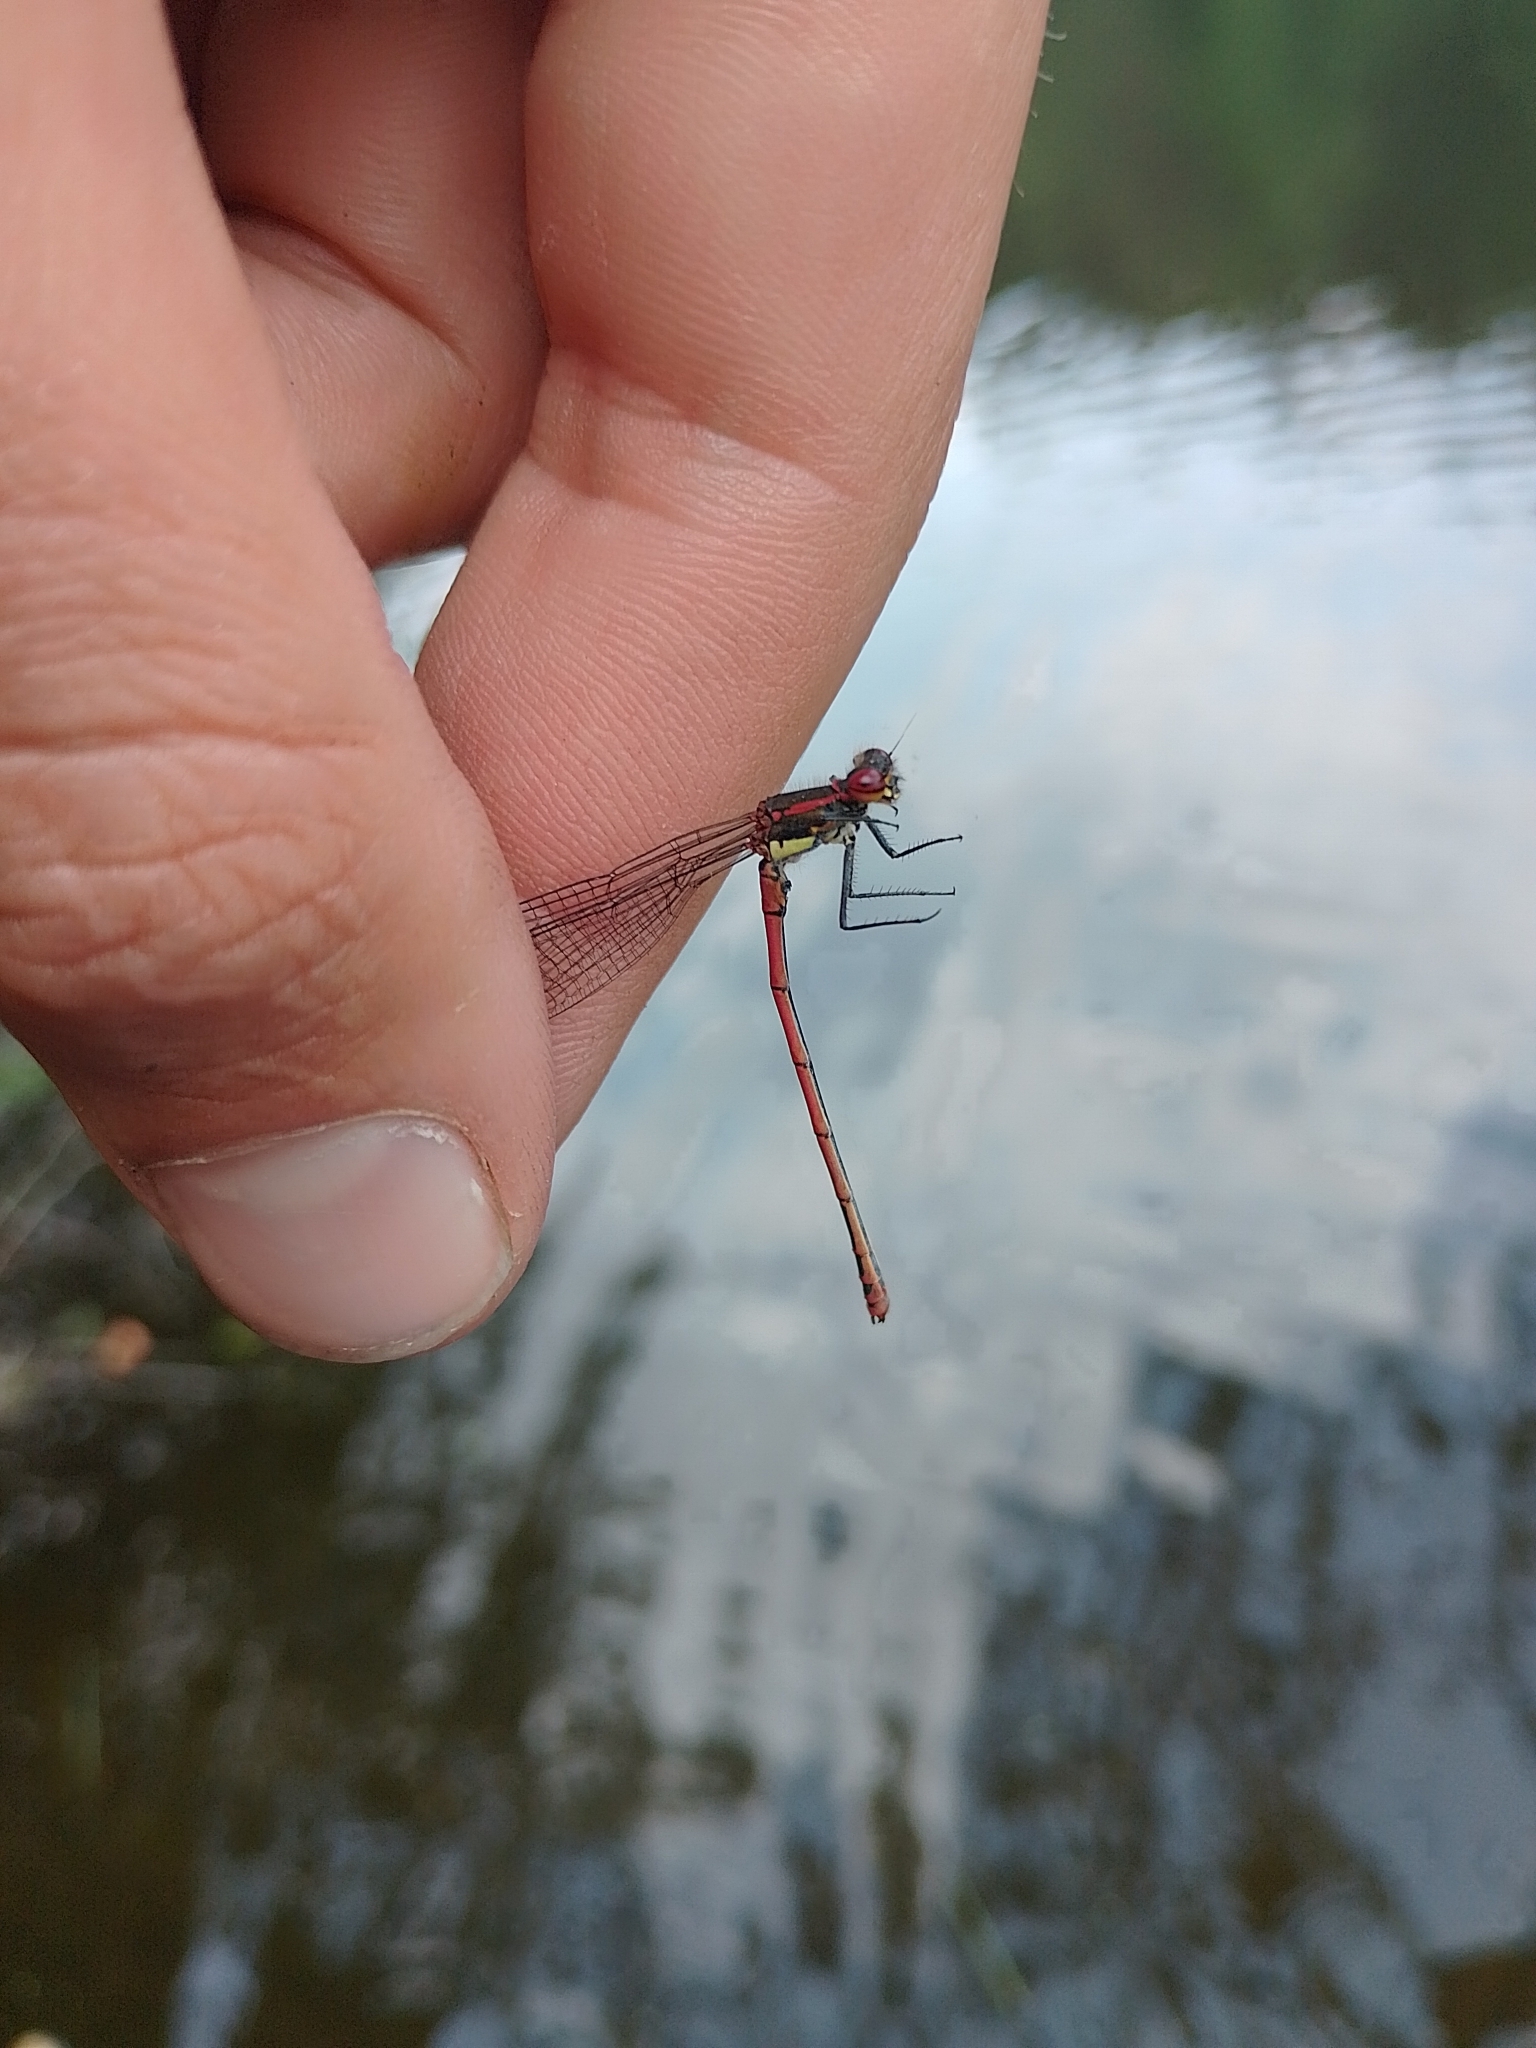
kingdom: Animalia
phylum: Arthropoda
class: Insecta
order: Odonata
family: Coenagrionidae
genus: Pyrrhosoma
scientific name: Pyrrhosoma nymphula
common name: Large red damsel
